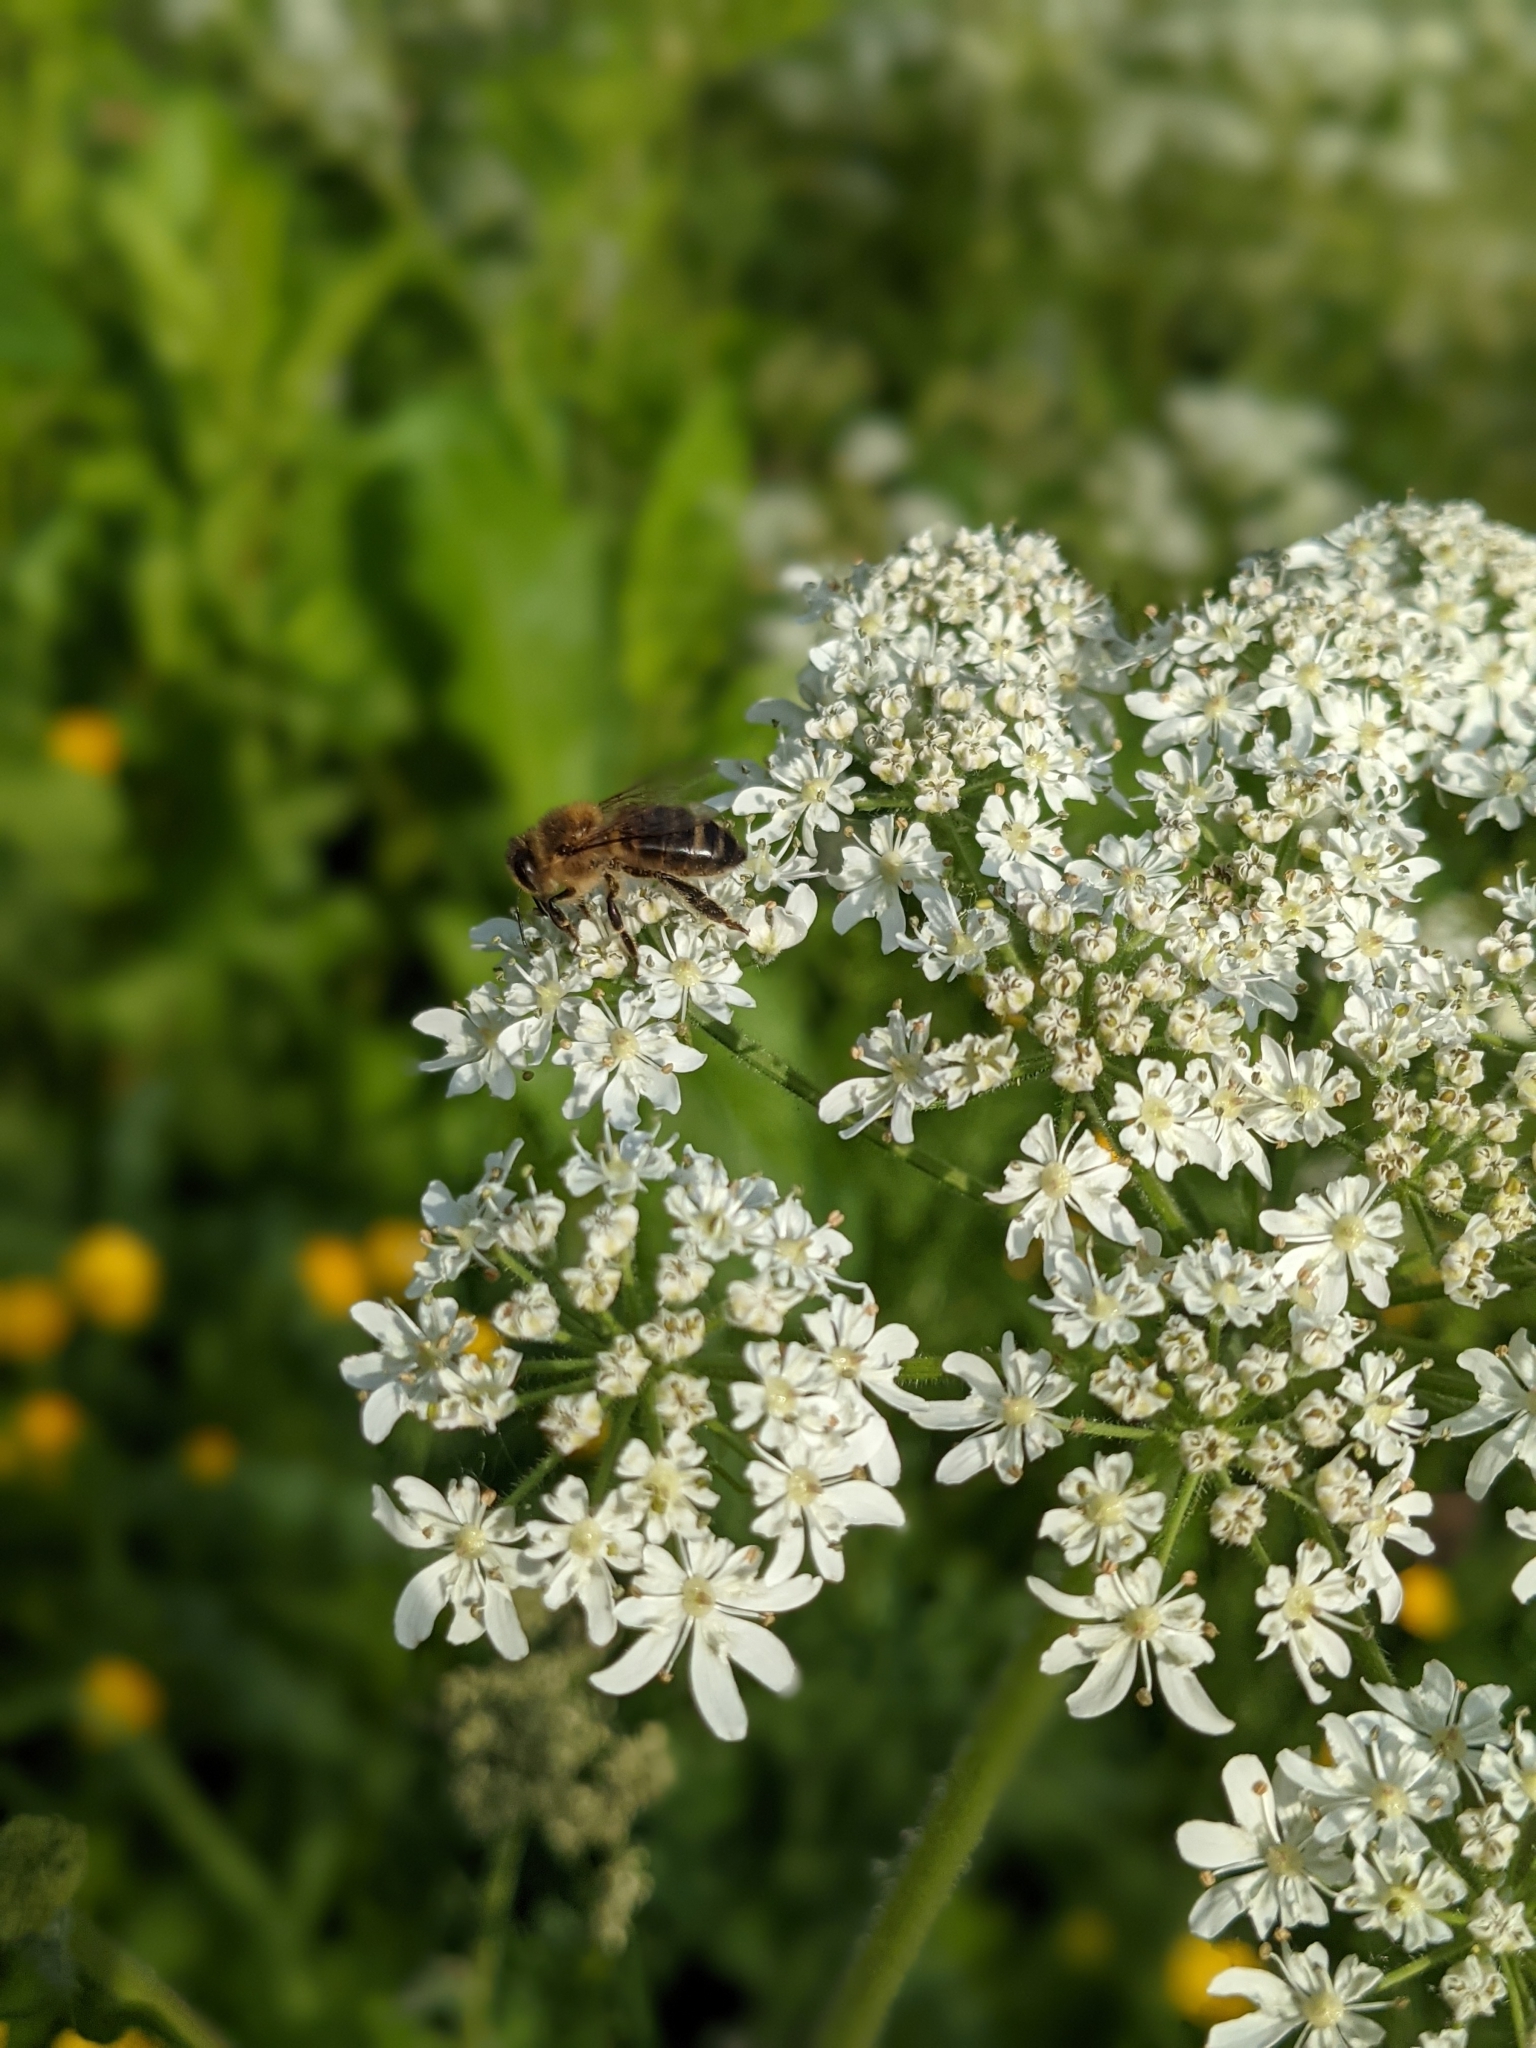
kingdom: Animalia
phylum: Arthropoda
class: Insecta
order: Hymenoptera
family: Apidae
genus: Apis
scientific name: Apis mellifera
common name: Honey bee
